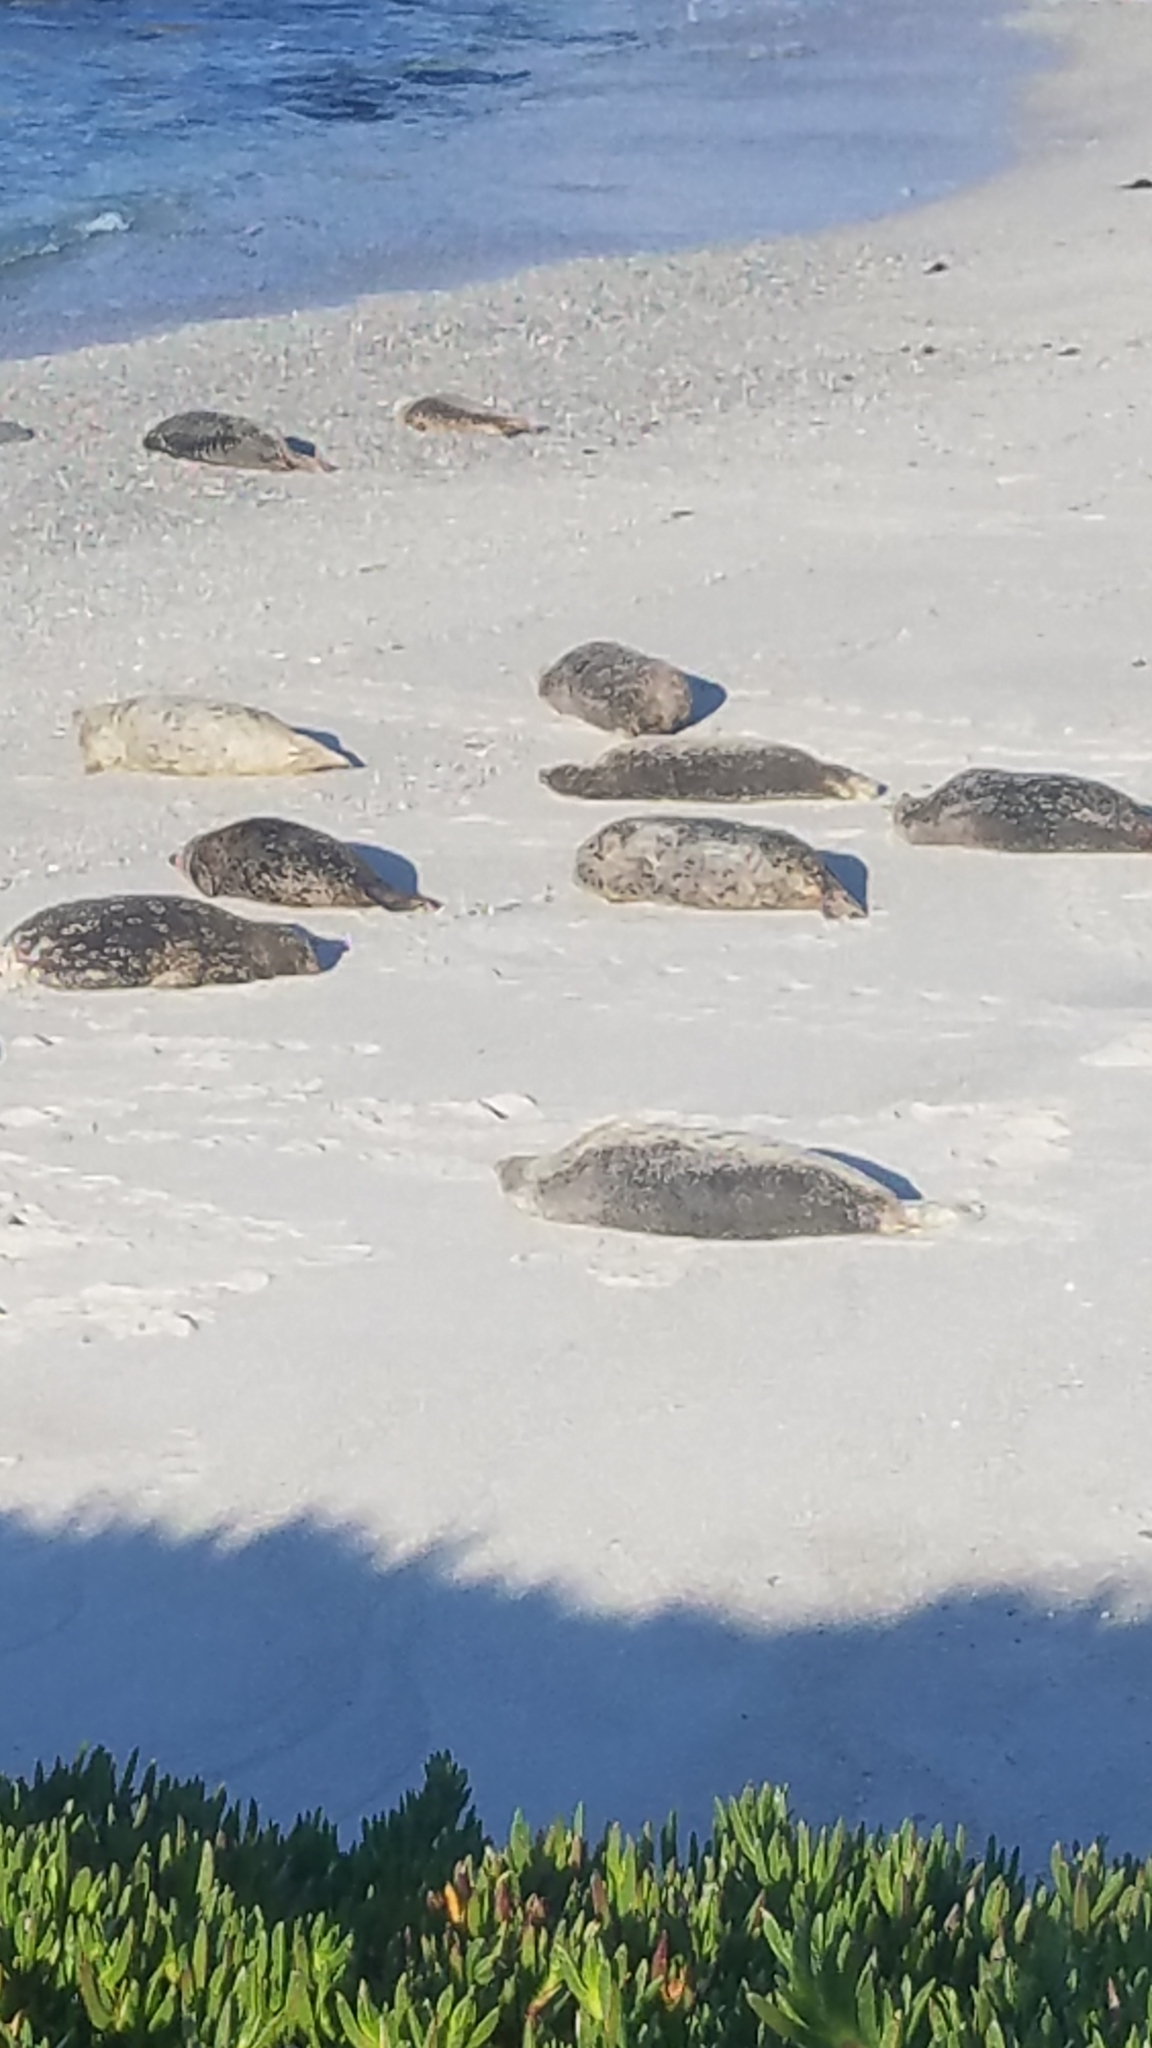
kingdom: Animalia
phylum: Chordata
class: Mammalia
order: Carnivora
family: Phocidae
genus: Phoca
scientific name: Phoca vitulina
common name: Harbor seal
